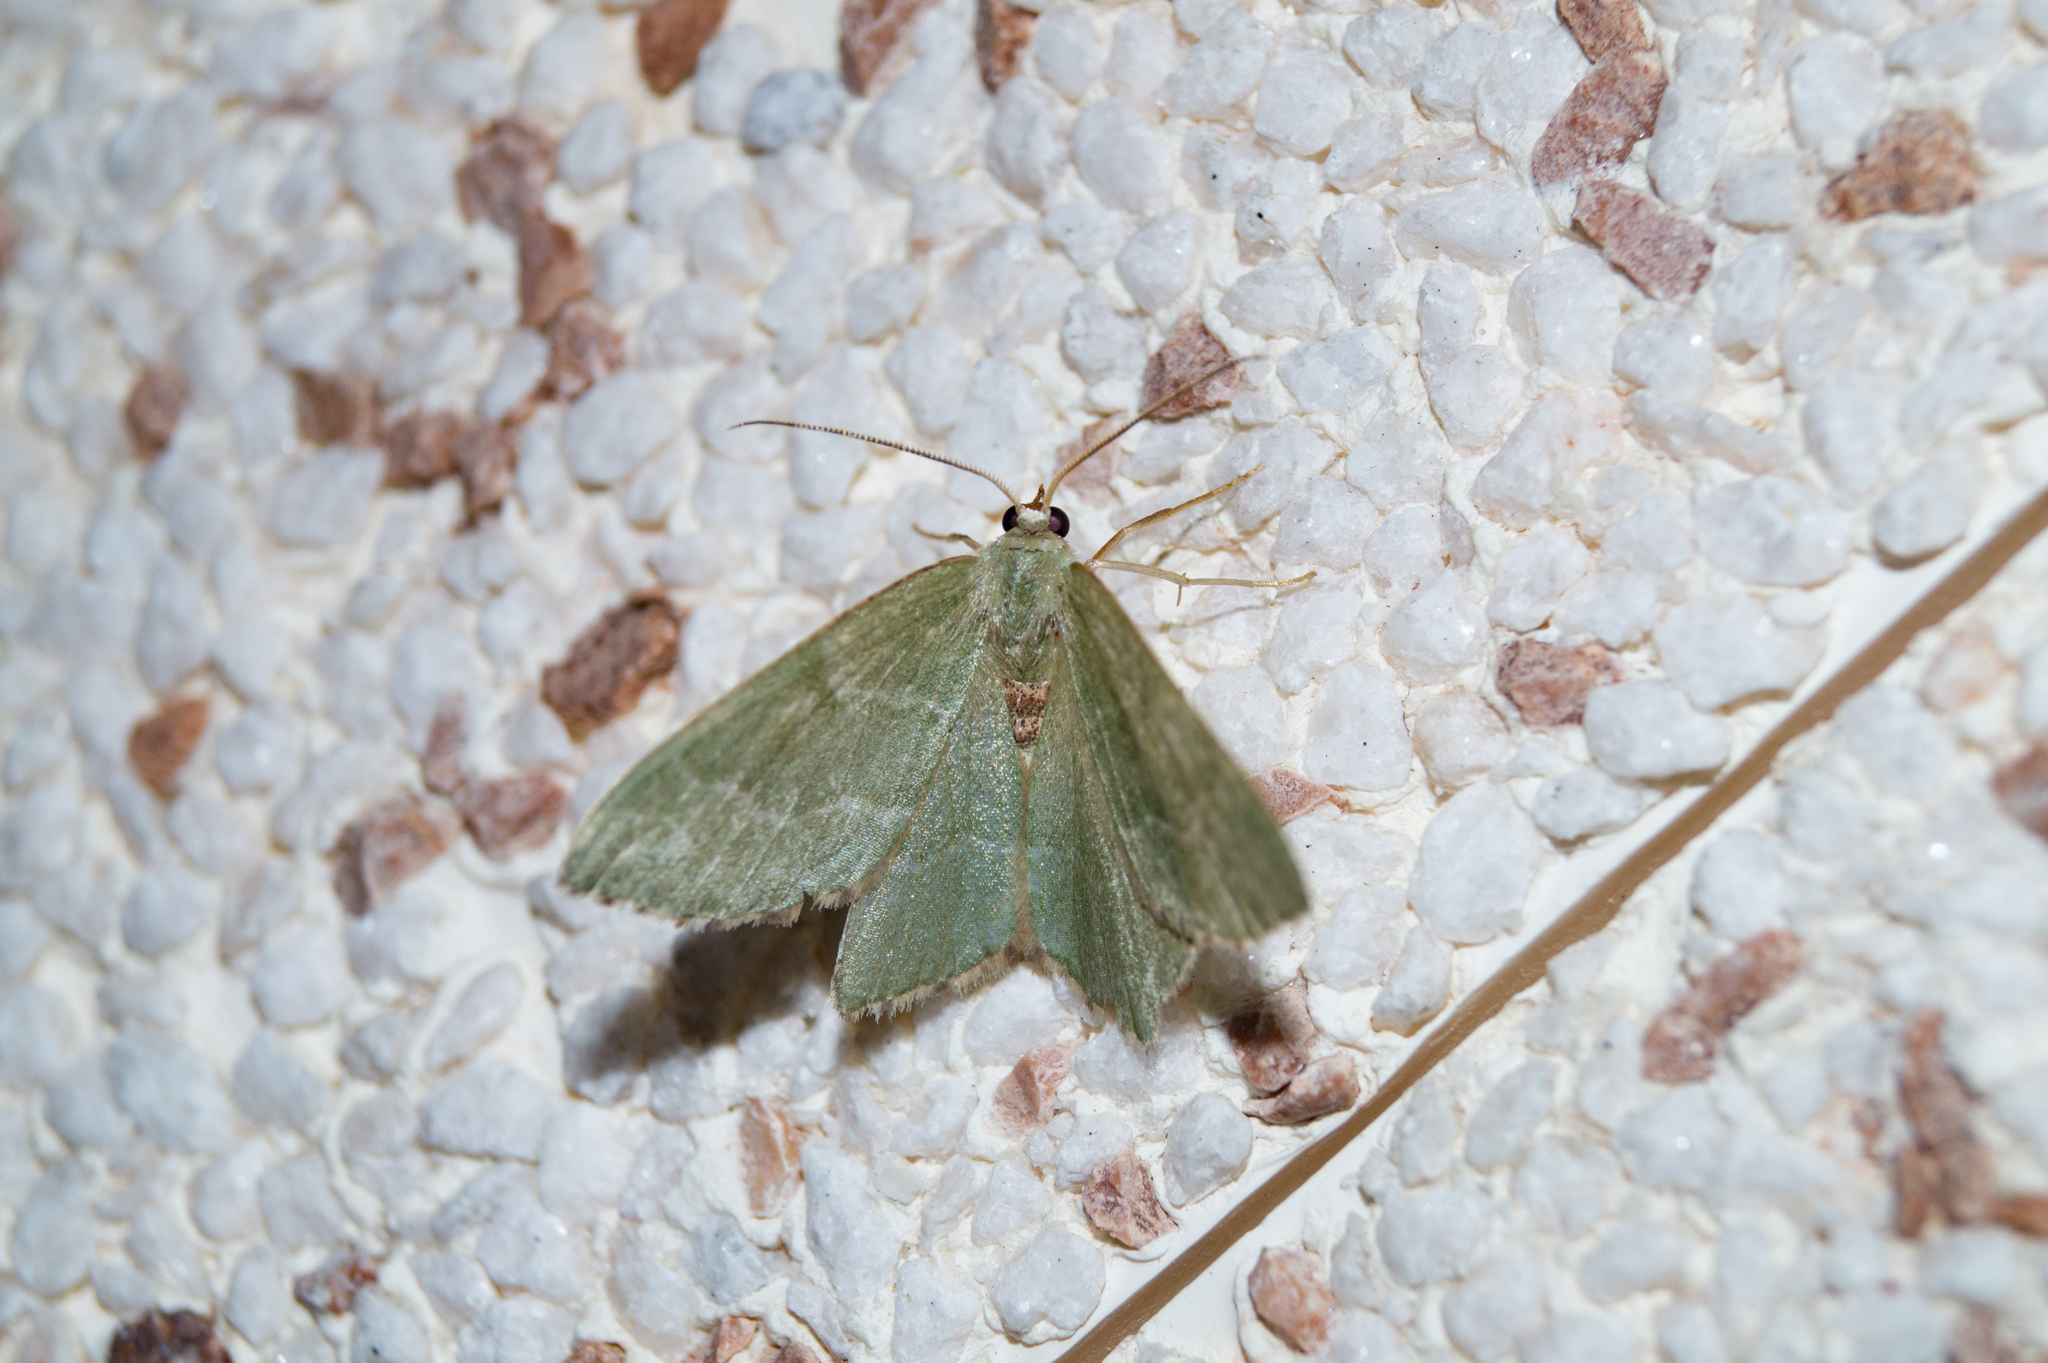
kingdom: Animalia
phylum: Arthropoda
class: Insecta
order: Lepidoptera
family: Geometridae
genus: Hemithea
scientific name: Hemithea aestivaria
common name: Common emerald
